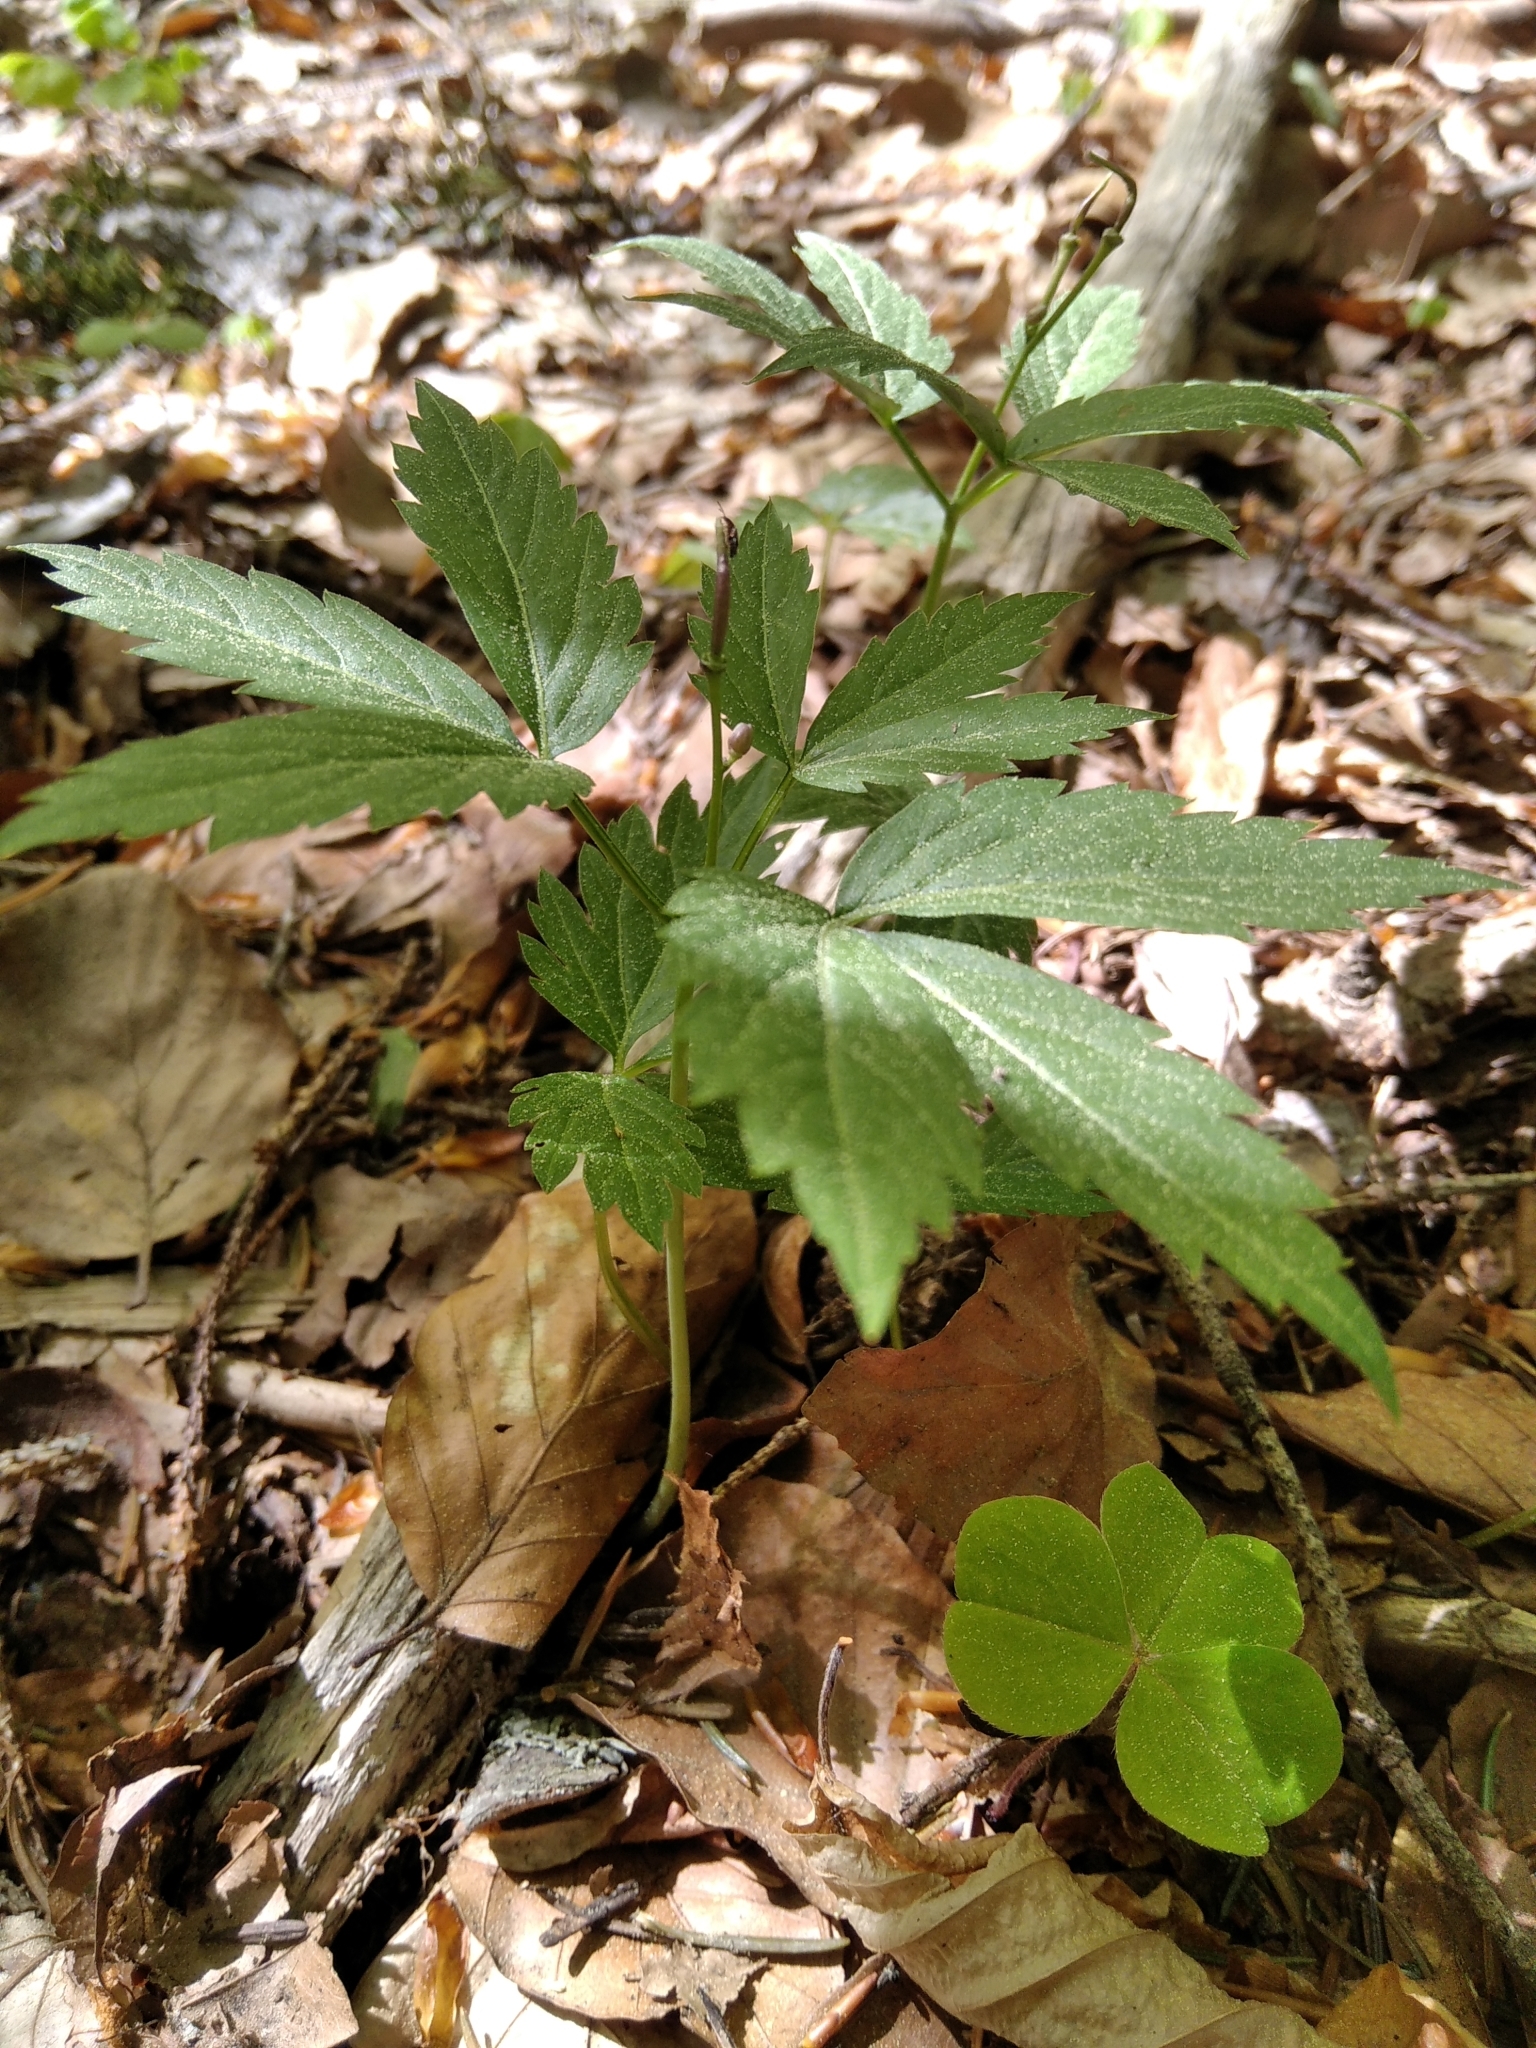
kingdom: Plantae
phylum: Tracheophyta
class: Magnoliopsida
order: Brassicales
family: Brassicaceae
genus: Cardamine
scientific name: Cardamine glanduligera
